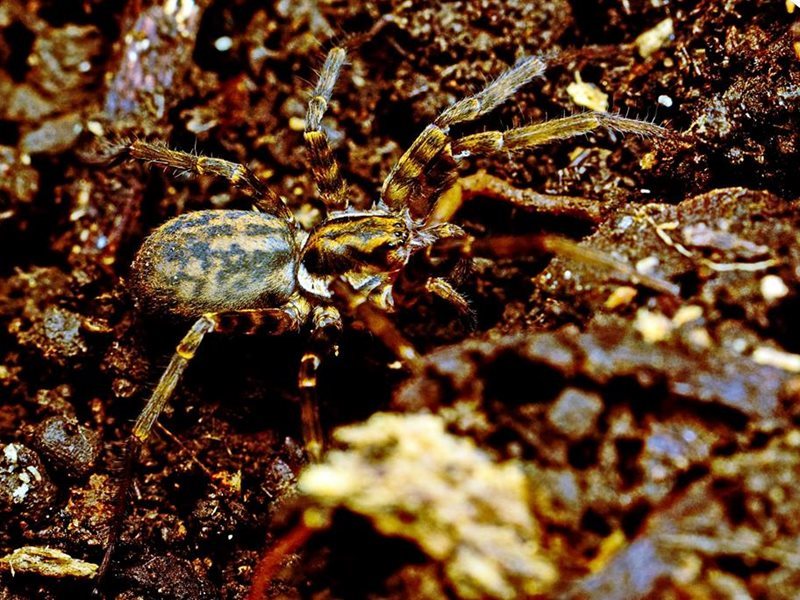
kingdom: Animalia
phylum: Arthropoda
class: Arachnida
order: Araneae
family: Zoropsidae
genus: Austrotengella
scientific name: Austrotengella hackerae
